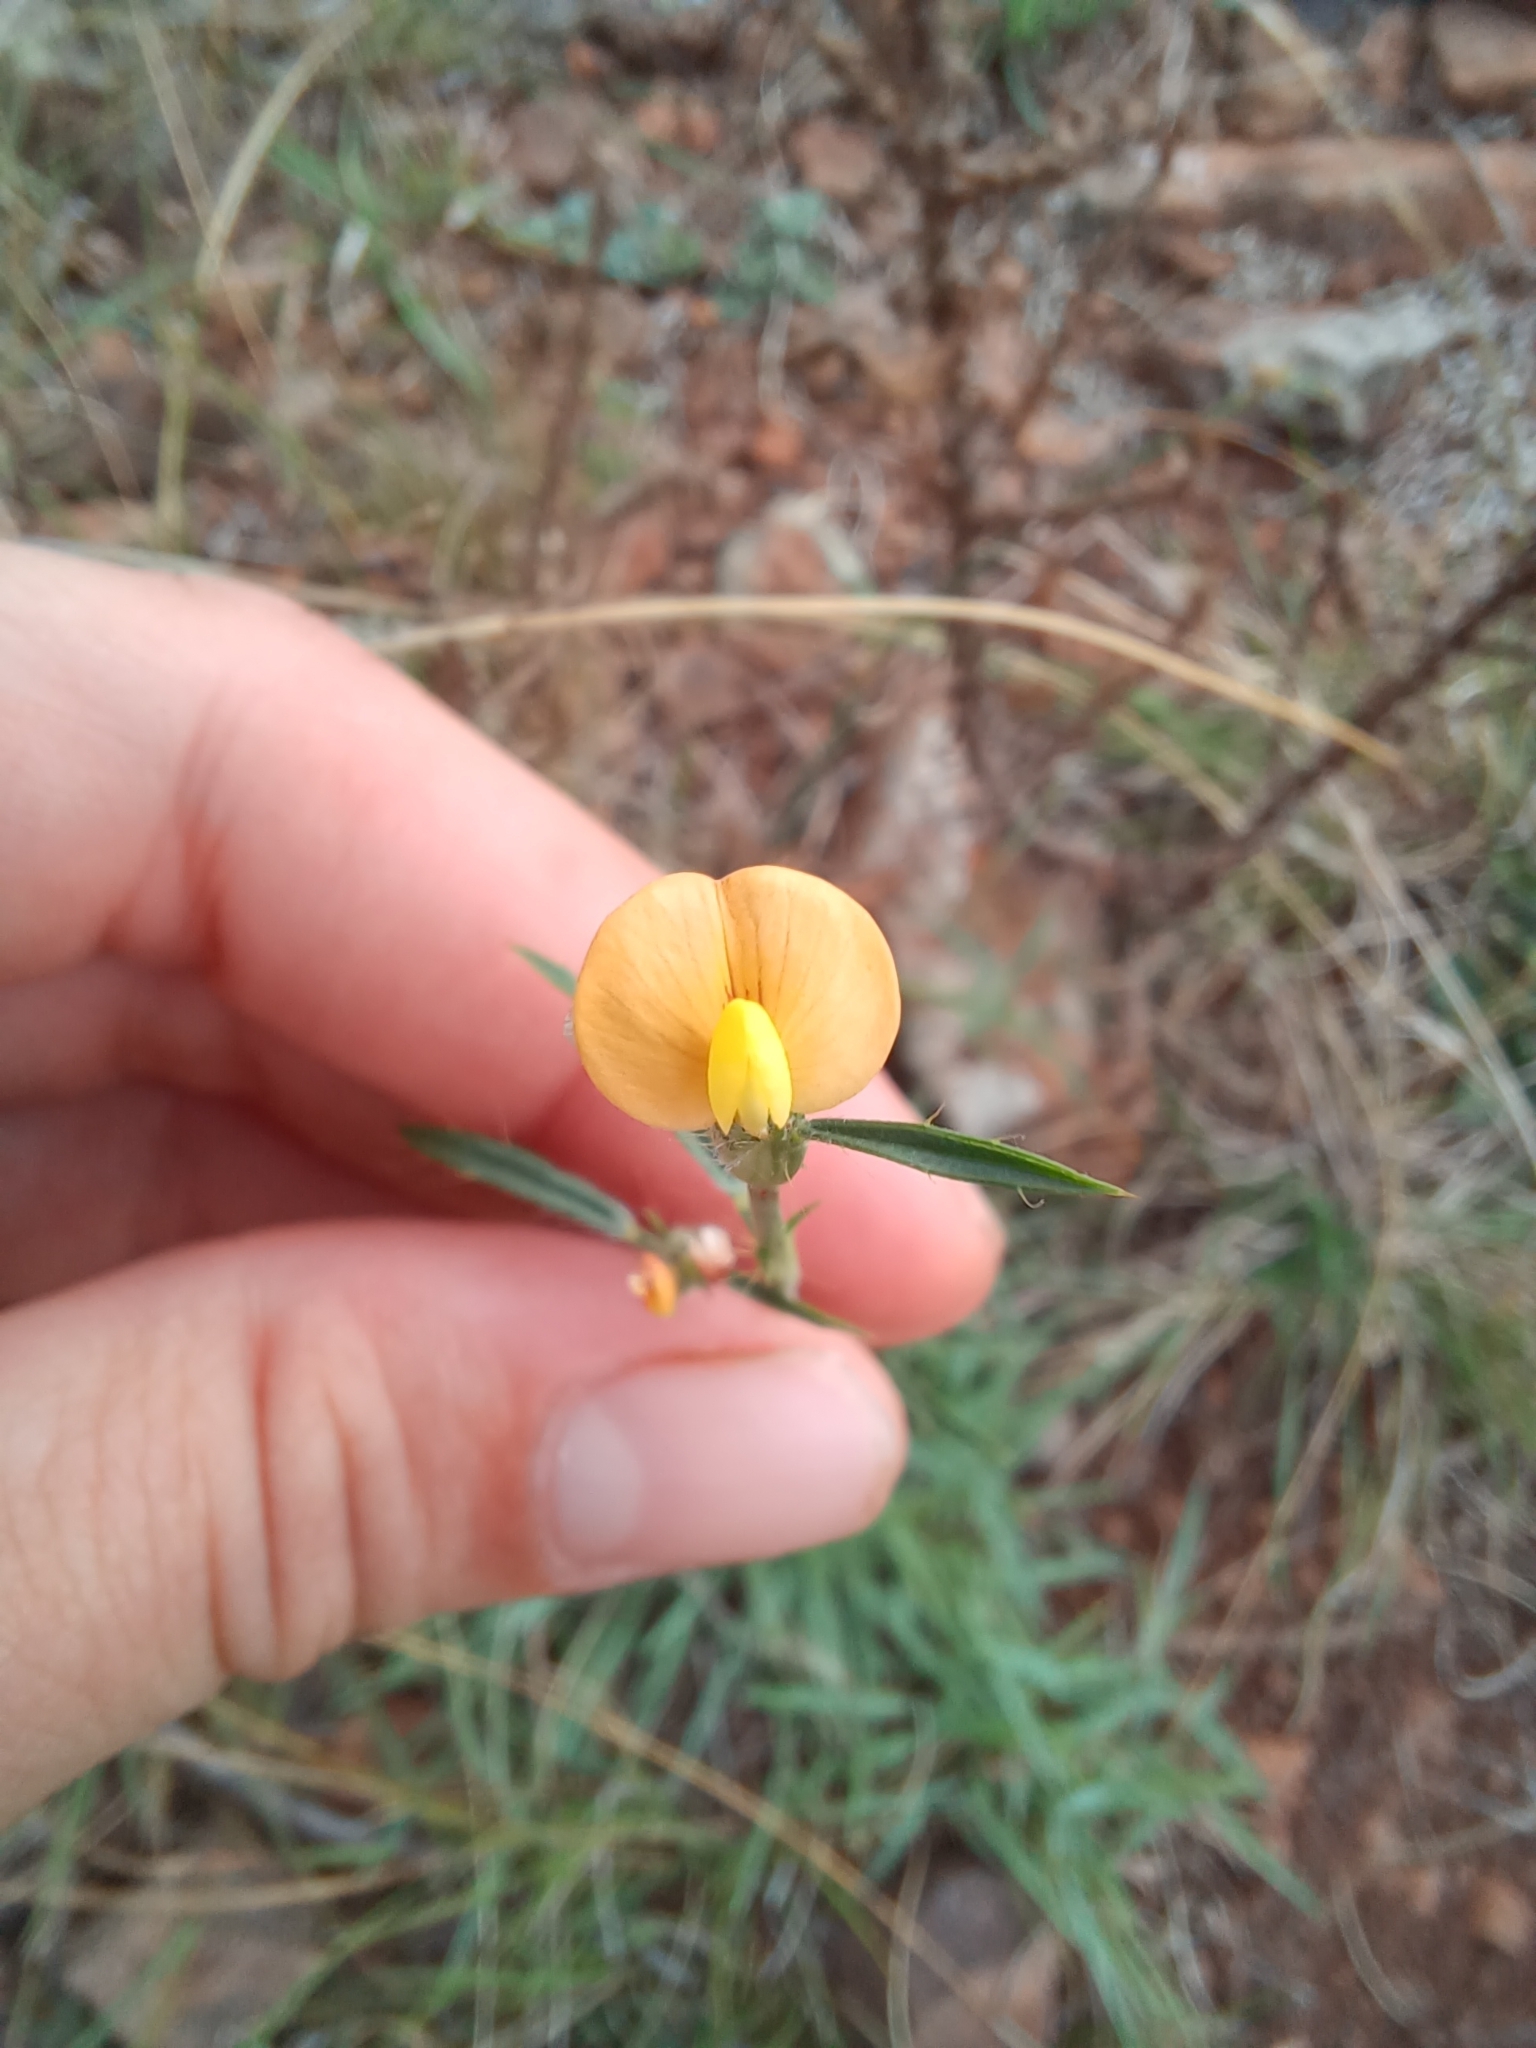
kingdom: Plantae
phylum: Tracheophyta
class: Magnoliopsida
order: Fabales
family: Fabaceae
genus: Stylosanthes
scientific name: Stylosanthes montevidensis
